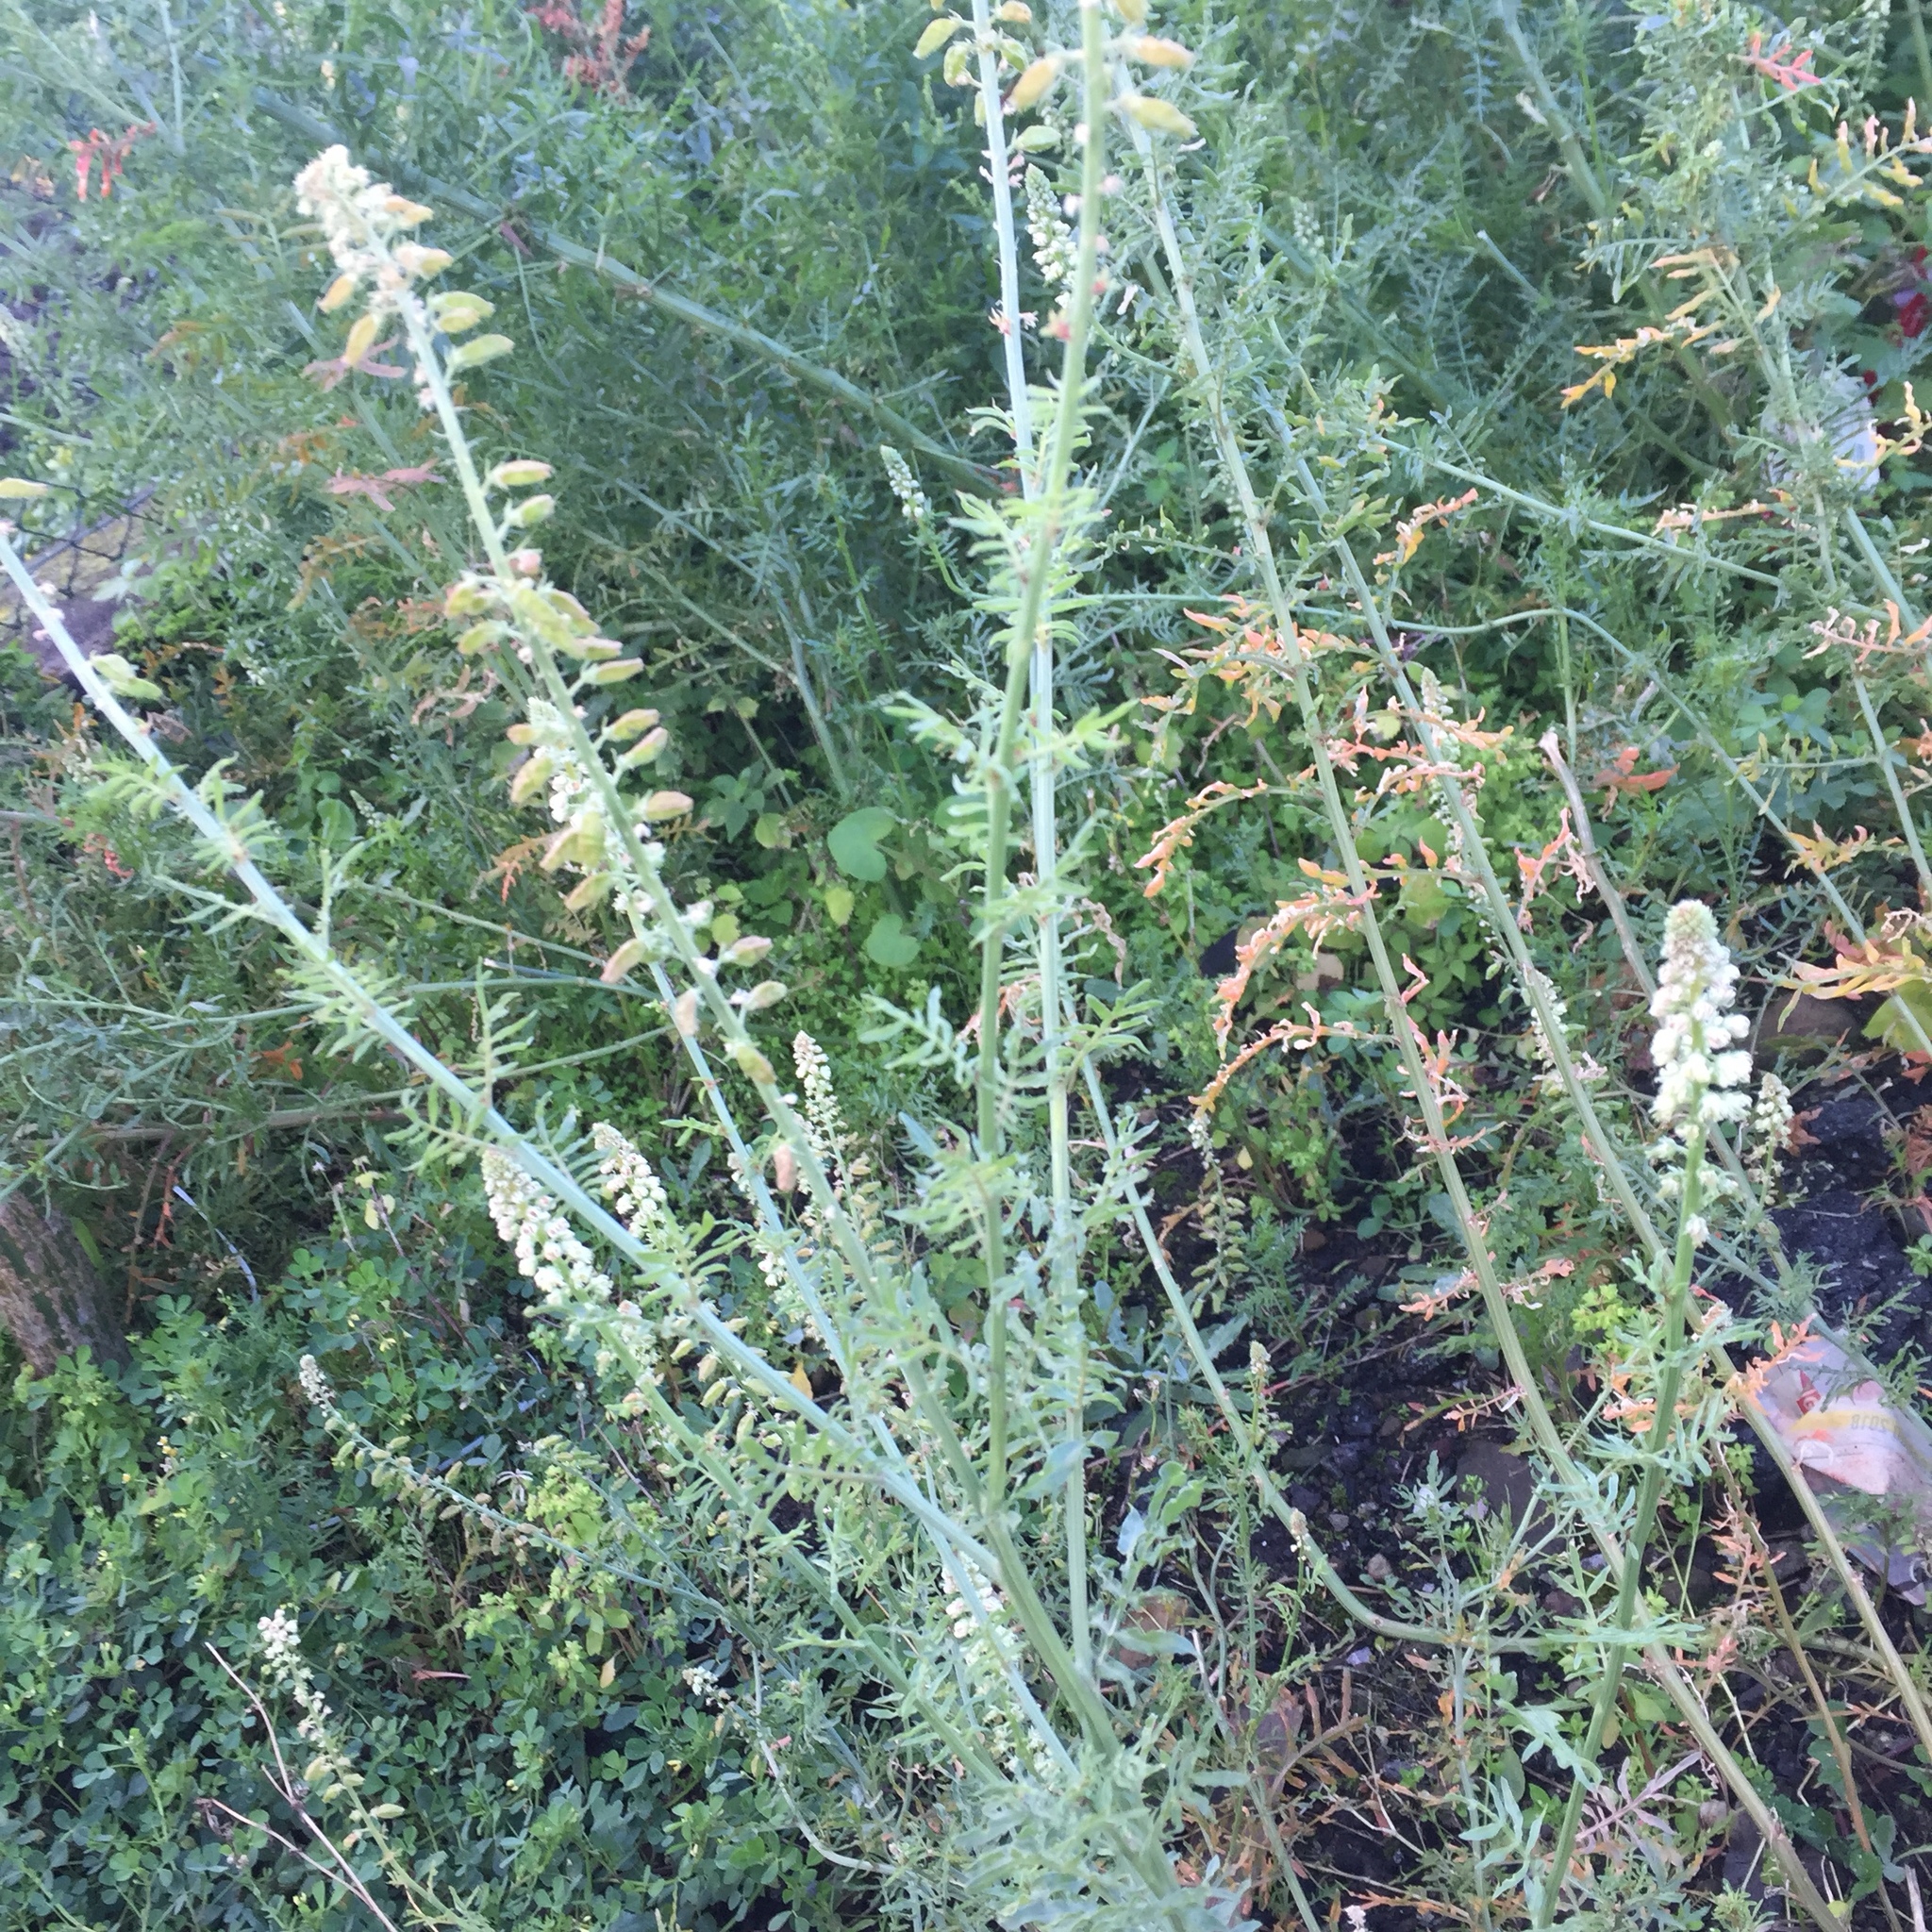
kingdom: Plantae
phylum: Tracheophyta
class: Magnoliopsida
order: Brassicales
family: Resedaceae
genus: Reseda
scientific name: Reseda alba
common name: White mignonette
